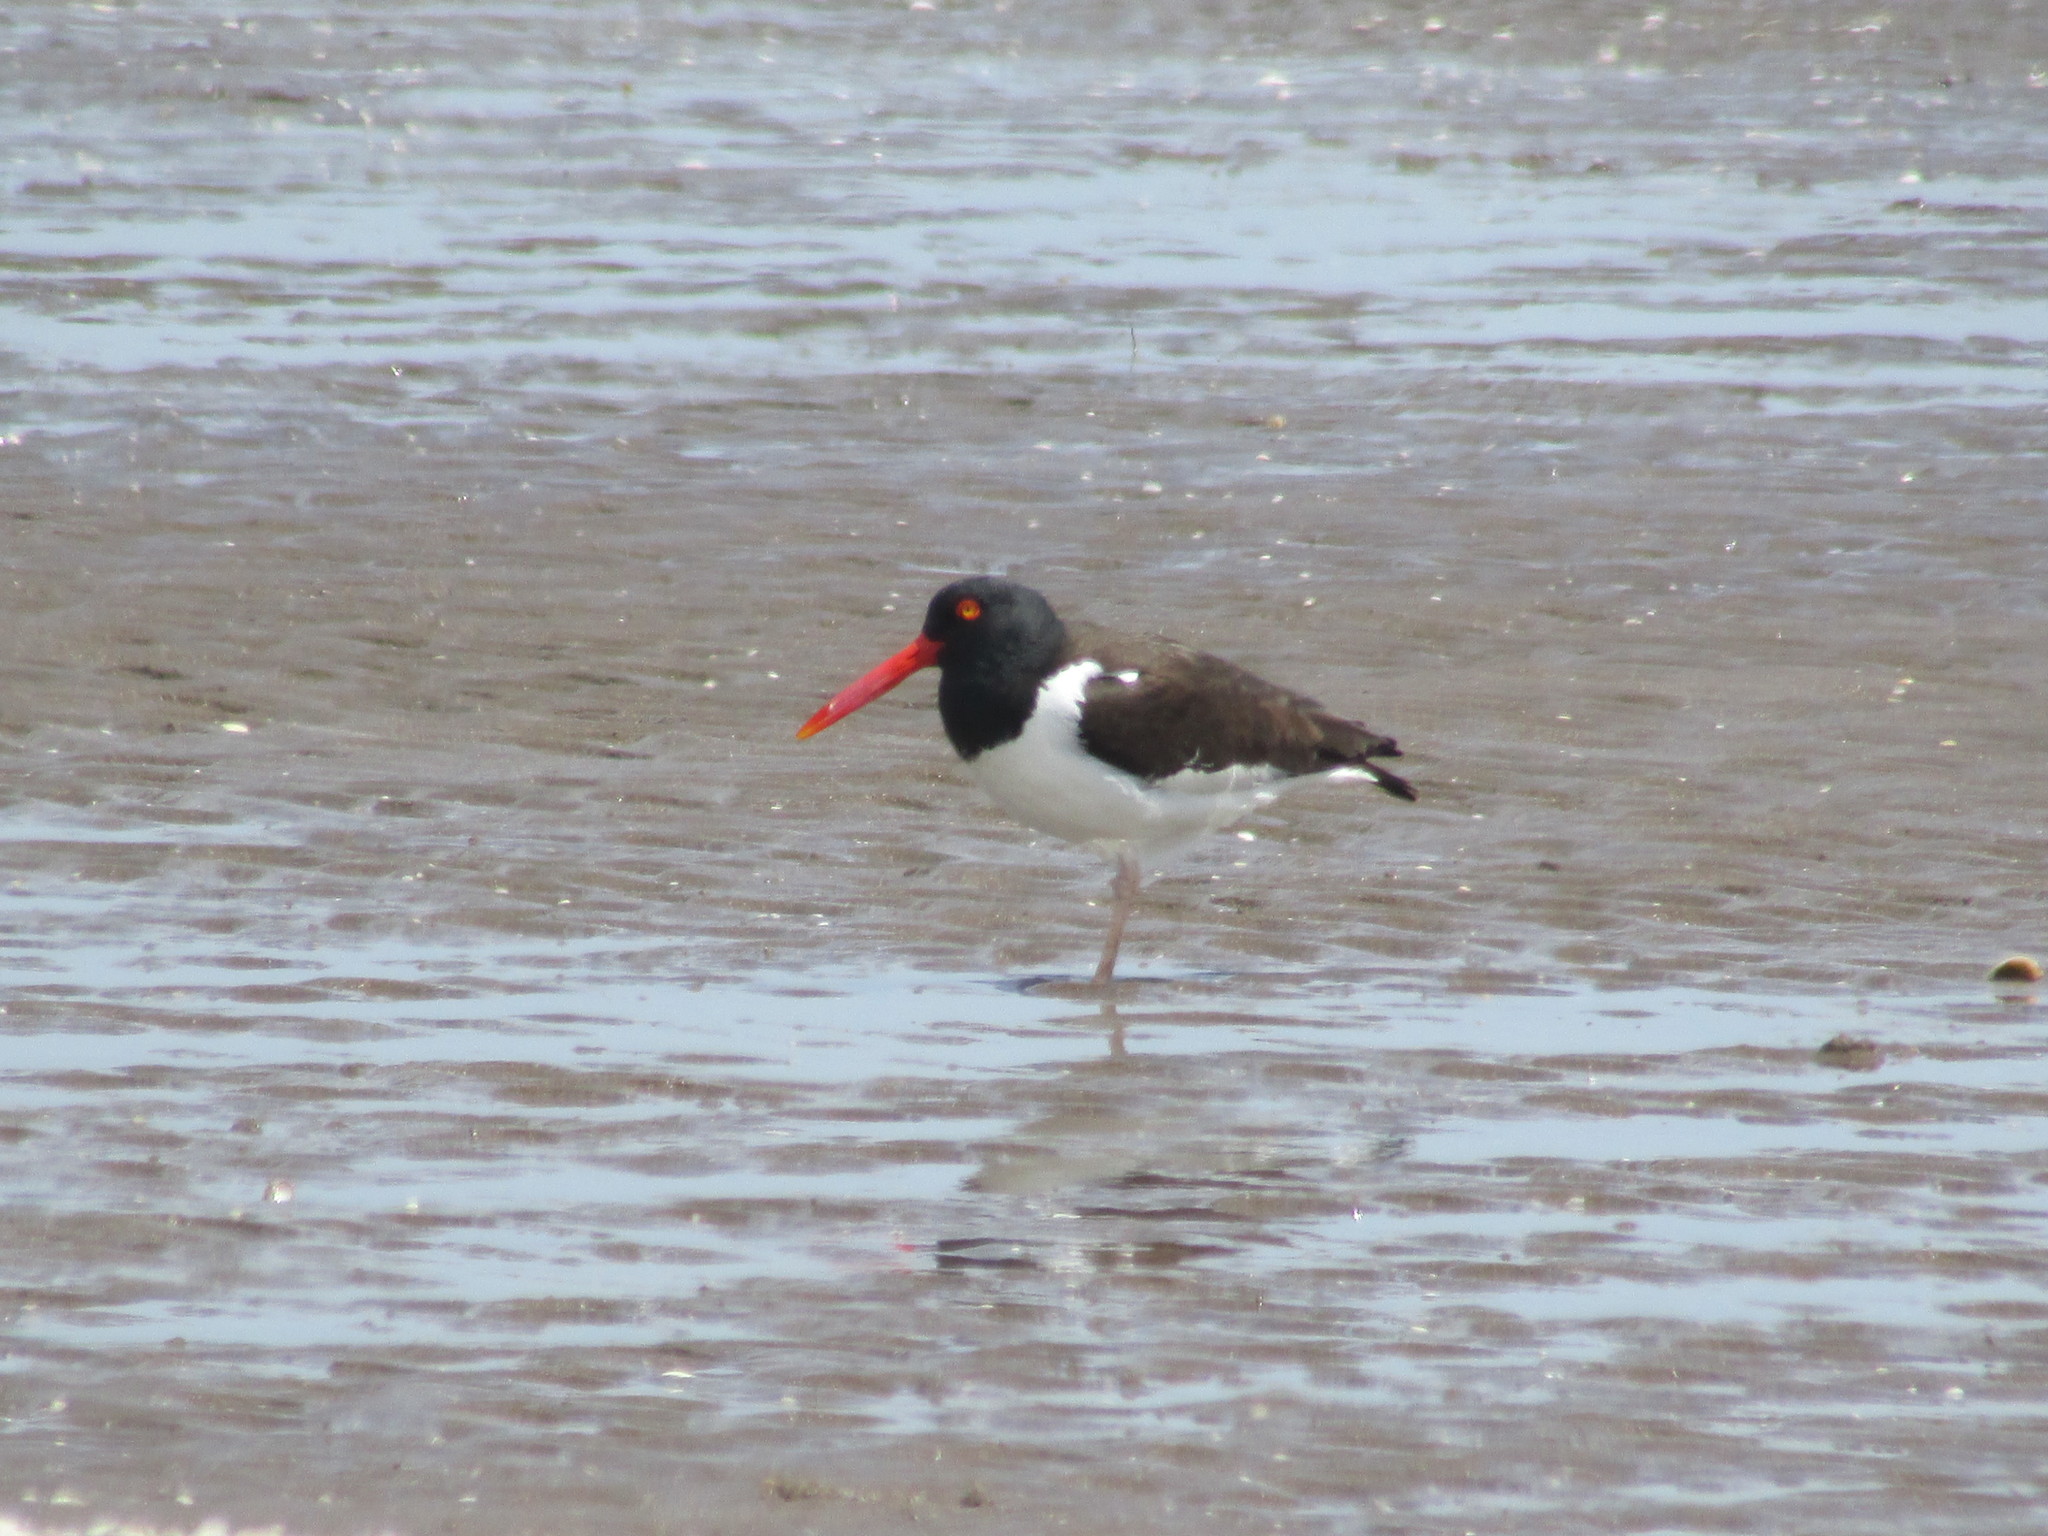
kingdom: Animalia
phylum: Chordata
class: Aves
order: Charadriiformes
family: Haematopodidae
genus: Haematopus
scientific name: Haematopus palliatus
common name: American oystercatcher
